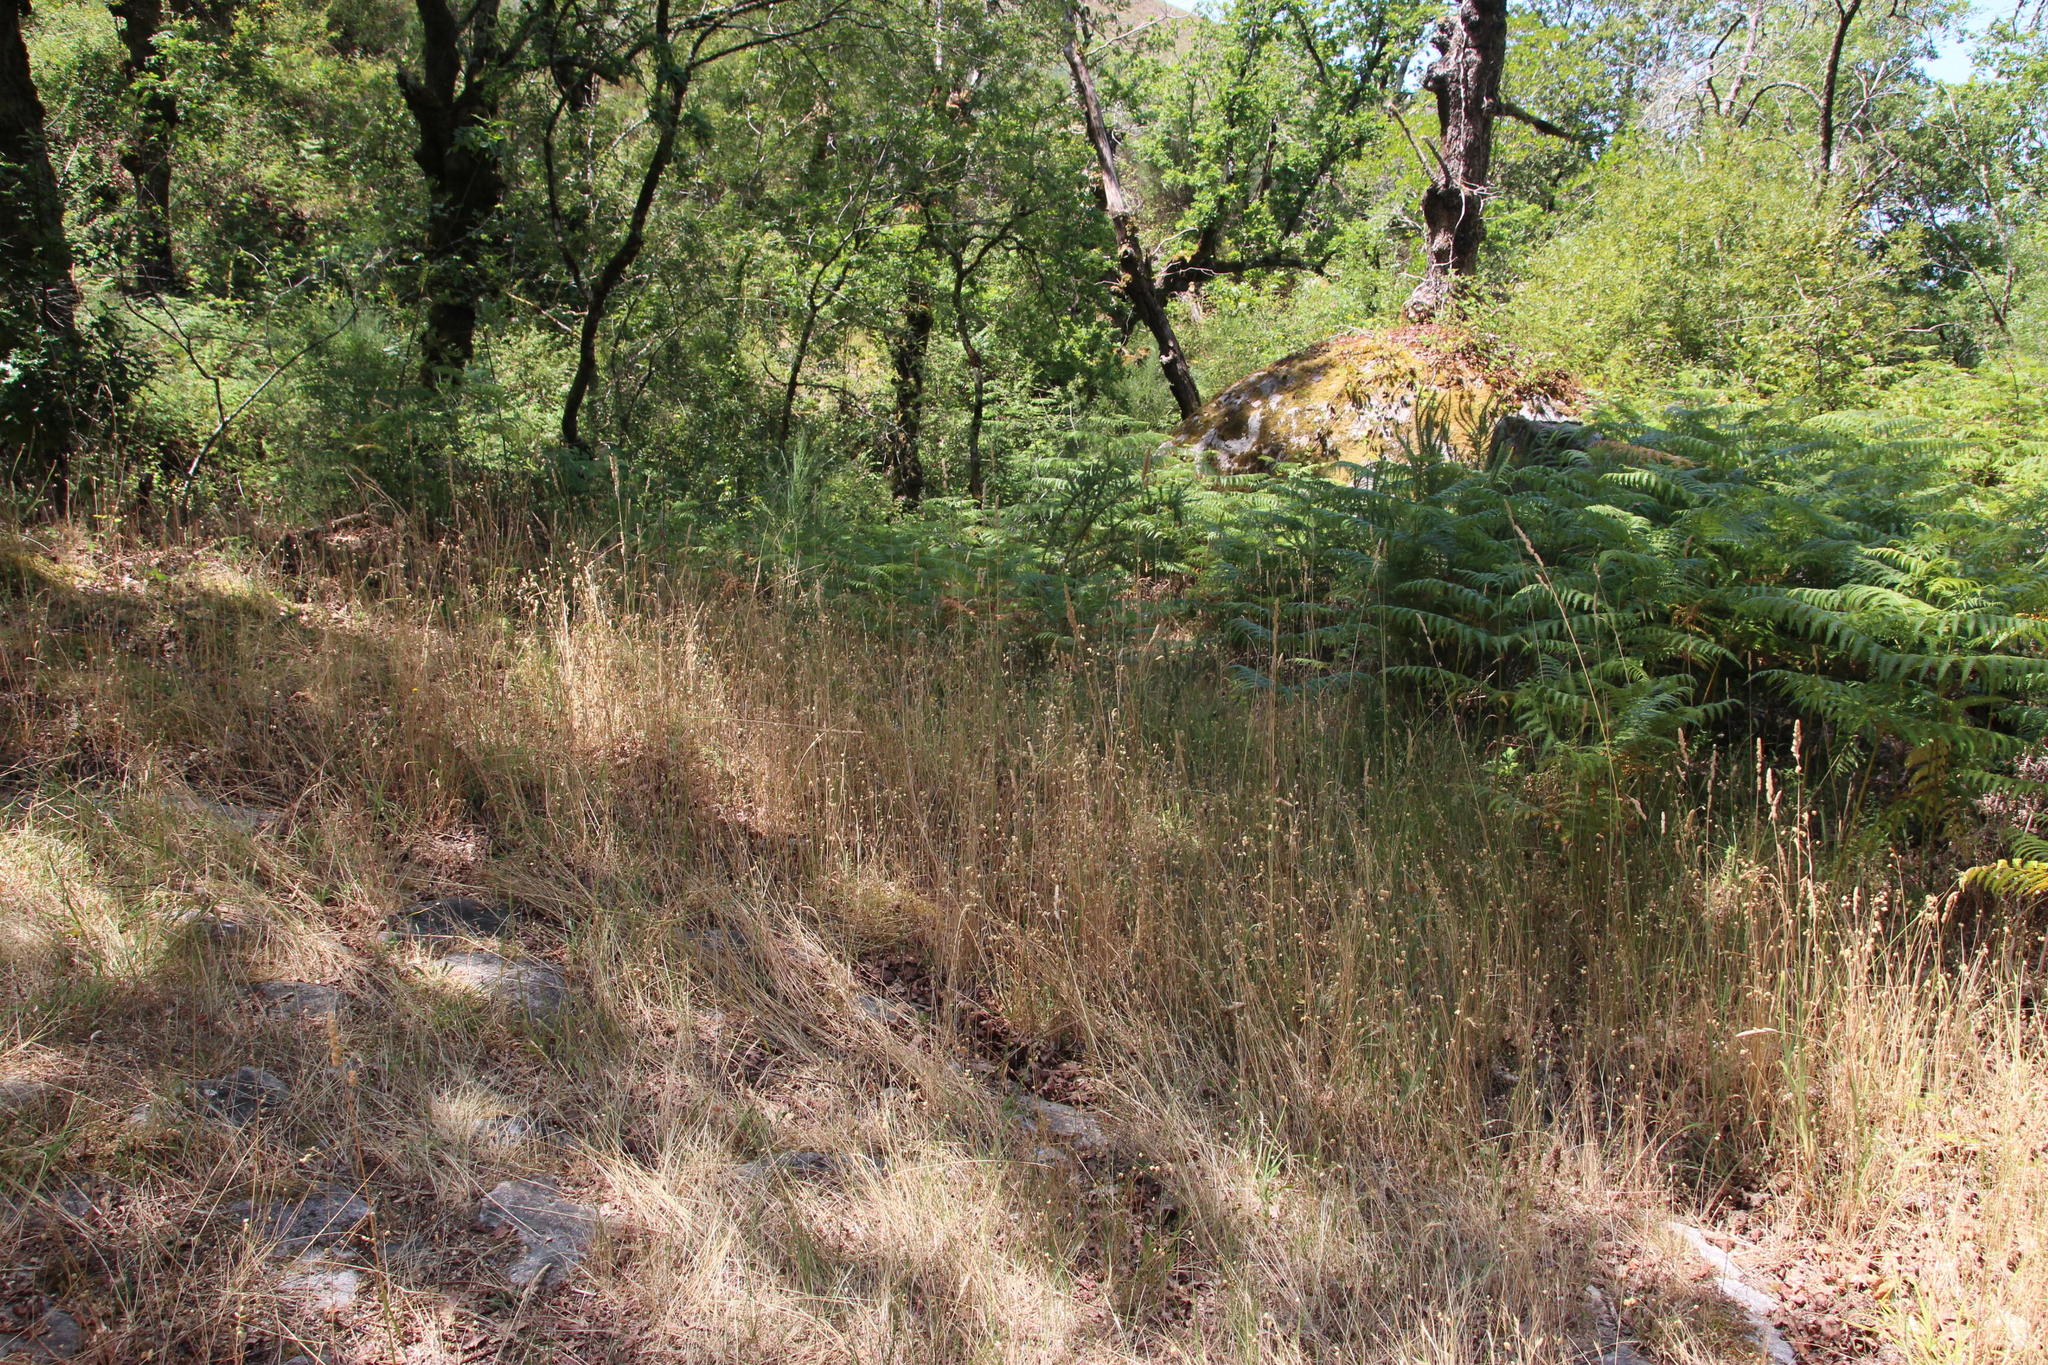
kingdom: Plantae
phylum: Tracheophyta
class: Liliopsida
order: Poales
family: Poaceae
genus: Briza
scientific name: Briza maxima
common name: Big quakinggrass
